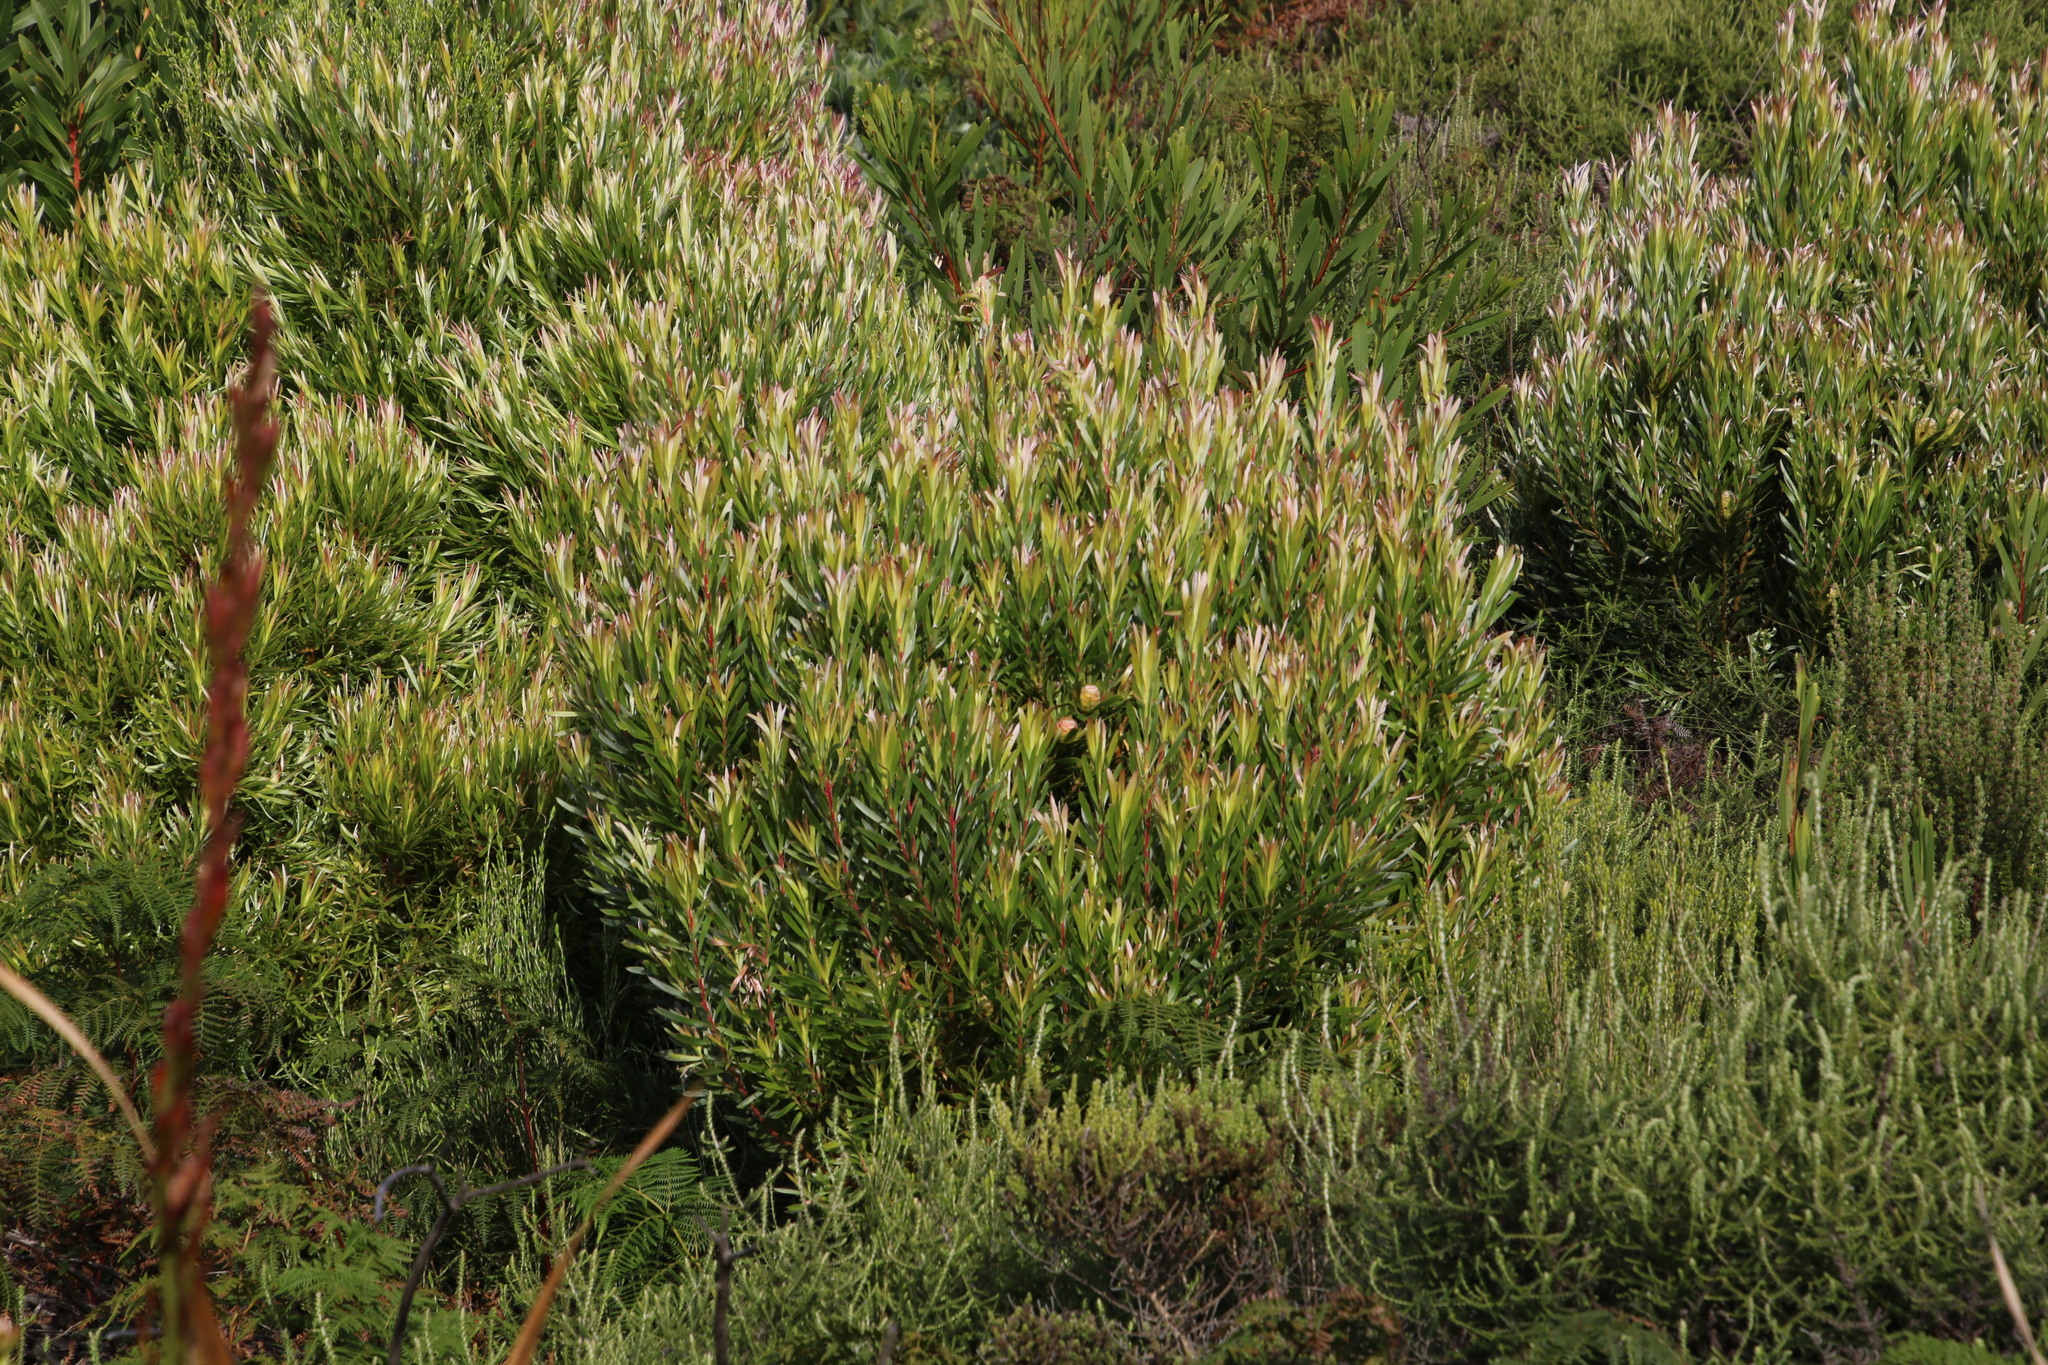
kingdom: Plantae
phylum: Tracheophyta
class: Magnoliopsida
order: Proteales
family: Proteaceae
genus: Leucadendron
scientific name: Leucadendron xanthoconus
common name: Sickle-leaf conebush
